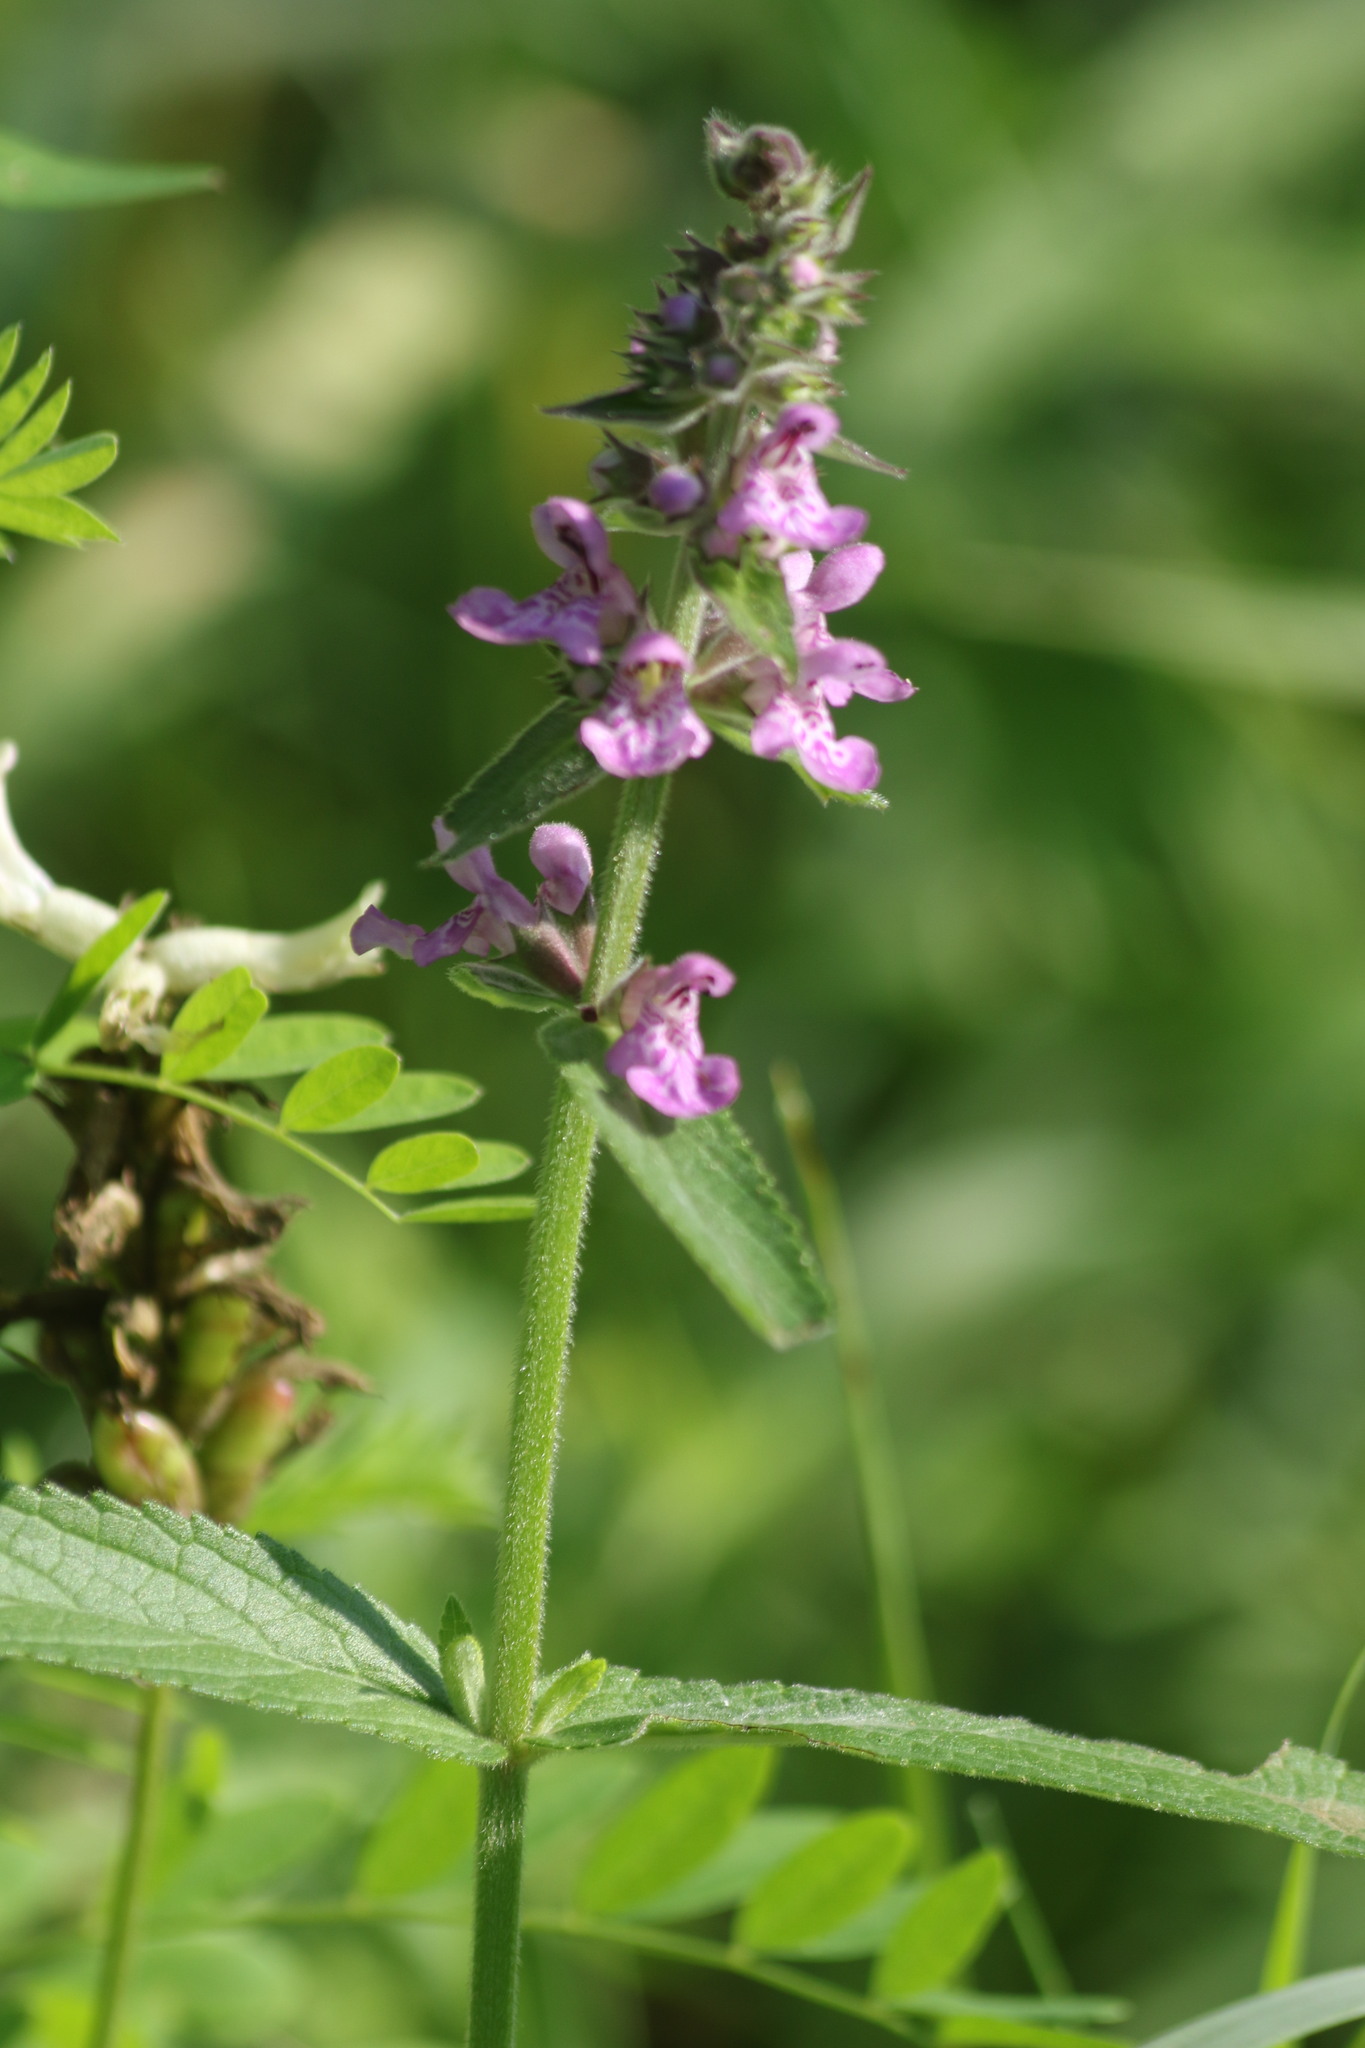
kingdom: Plantae
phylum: Tracheophyta
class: Magnoliopsida
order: Lamiales
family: Lamiaceae
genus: Stachys
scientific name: Stachys palustris
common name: Marsh woundwort
